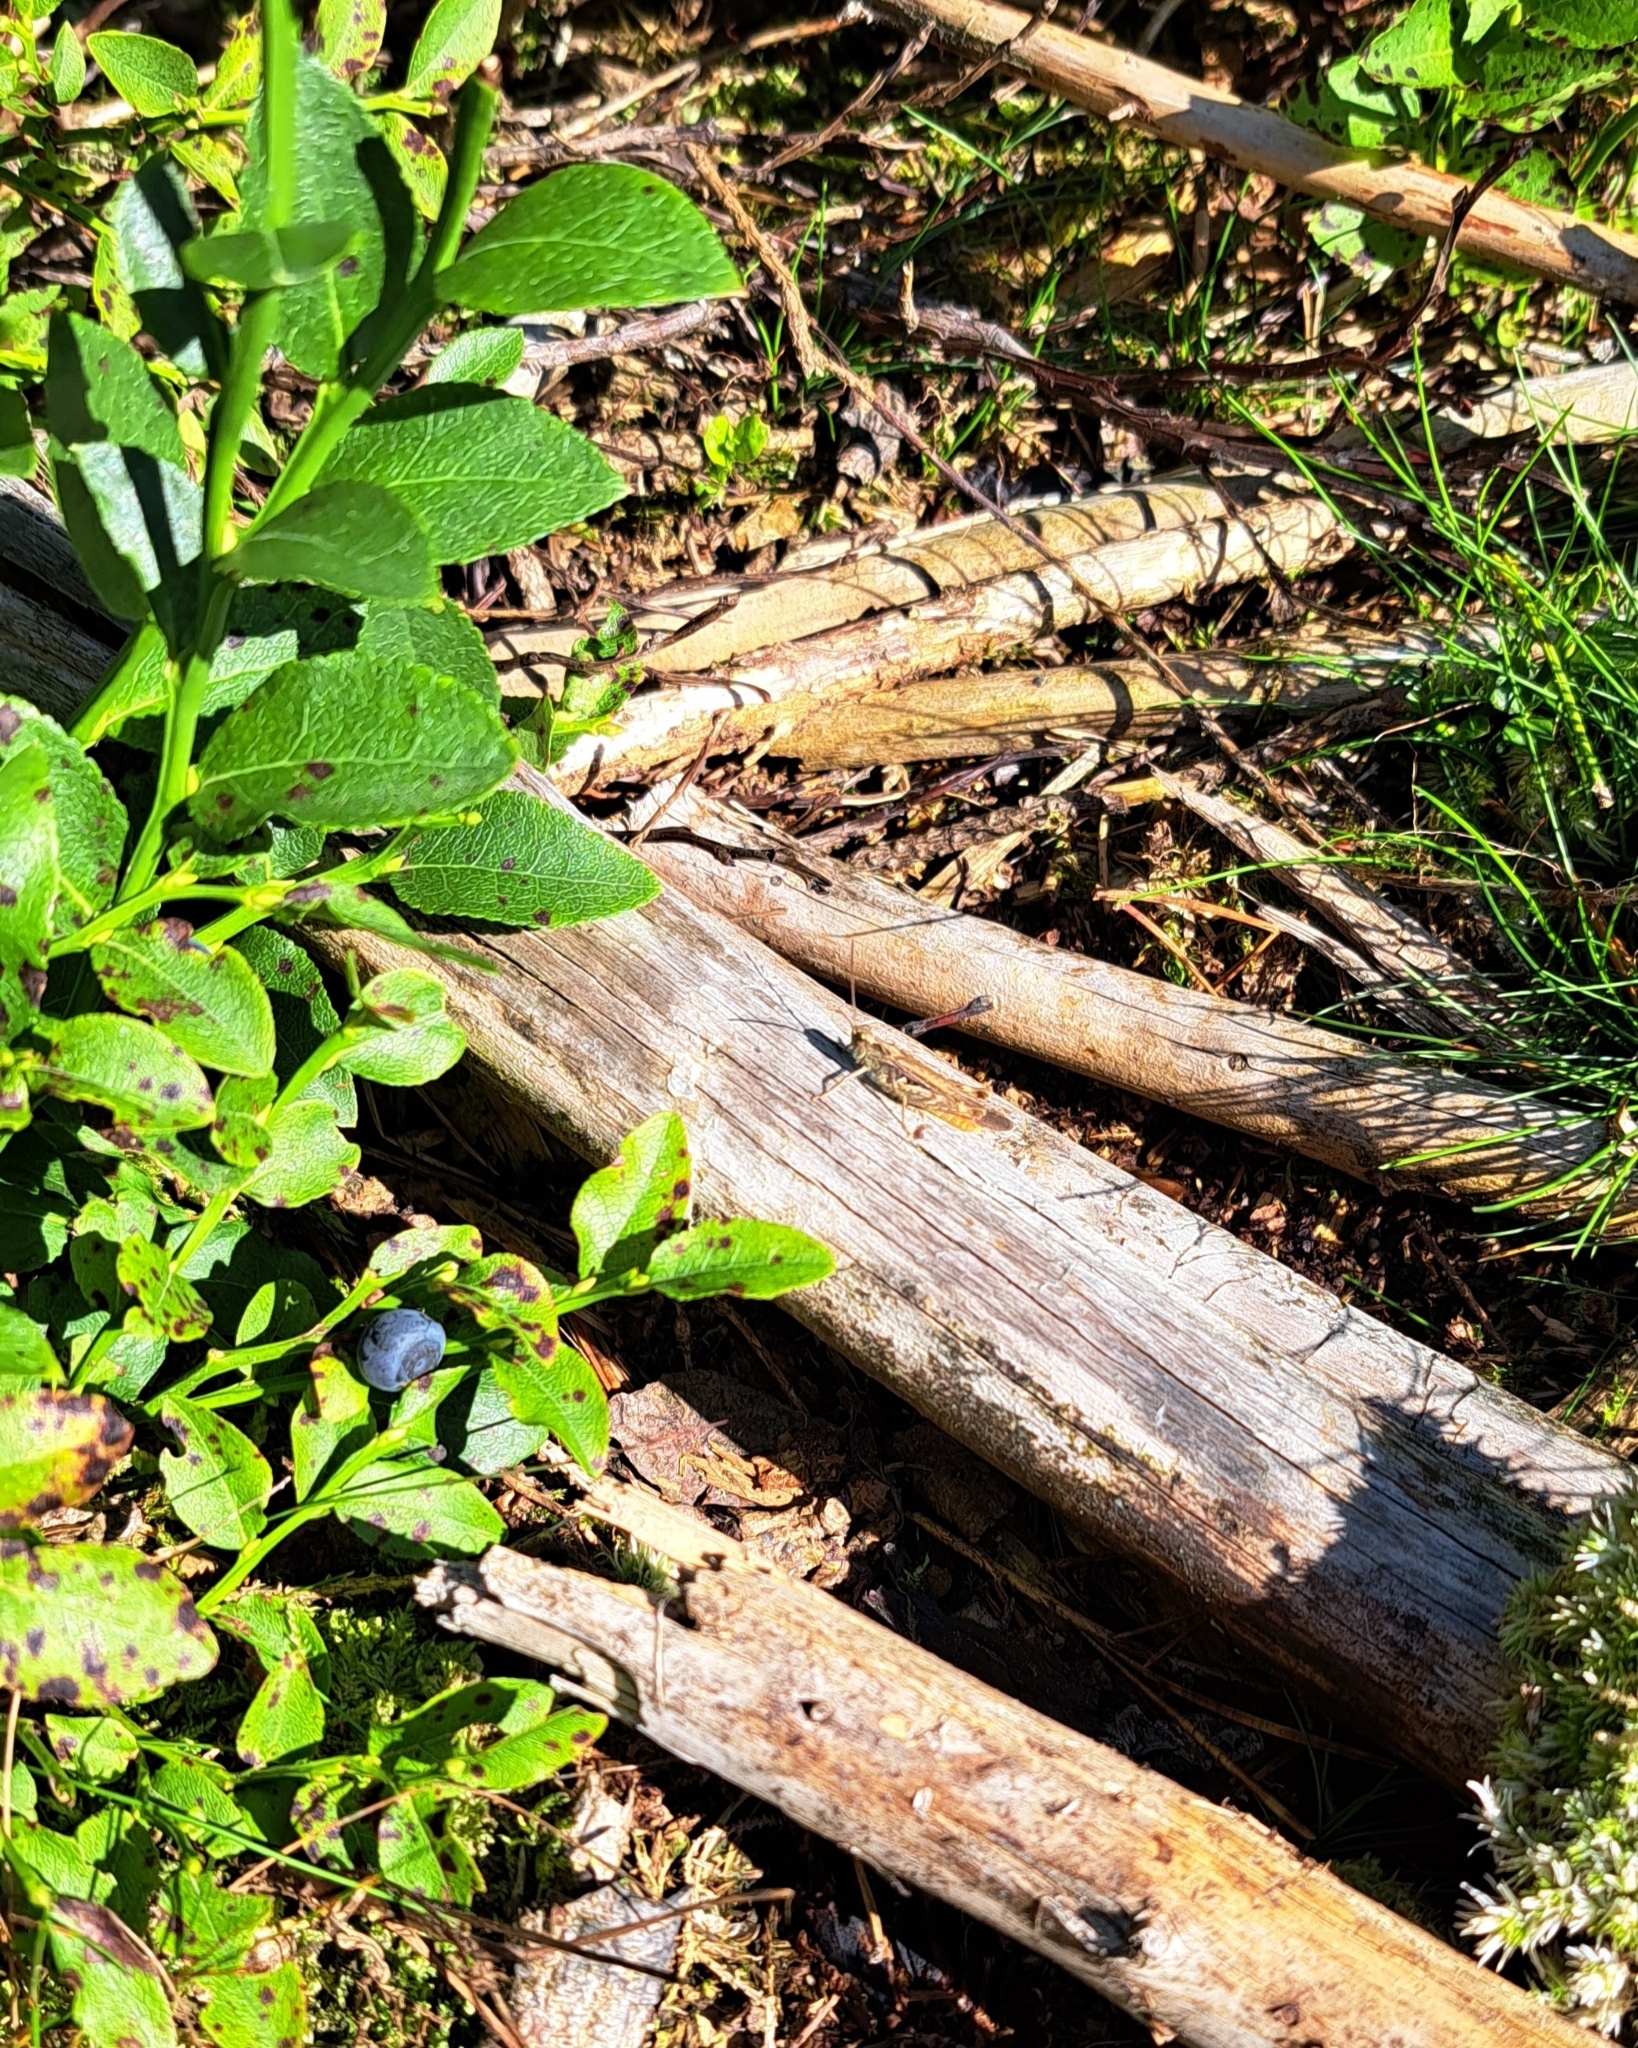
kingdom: Animalia
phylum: Arthropoda
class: Insecta
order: Orthoptera
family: Acrididae
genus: Chorthippus
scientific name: Chorthippus brunneus
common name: Field grasshopper
